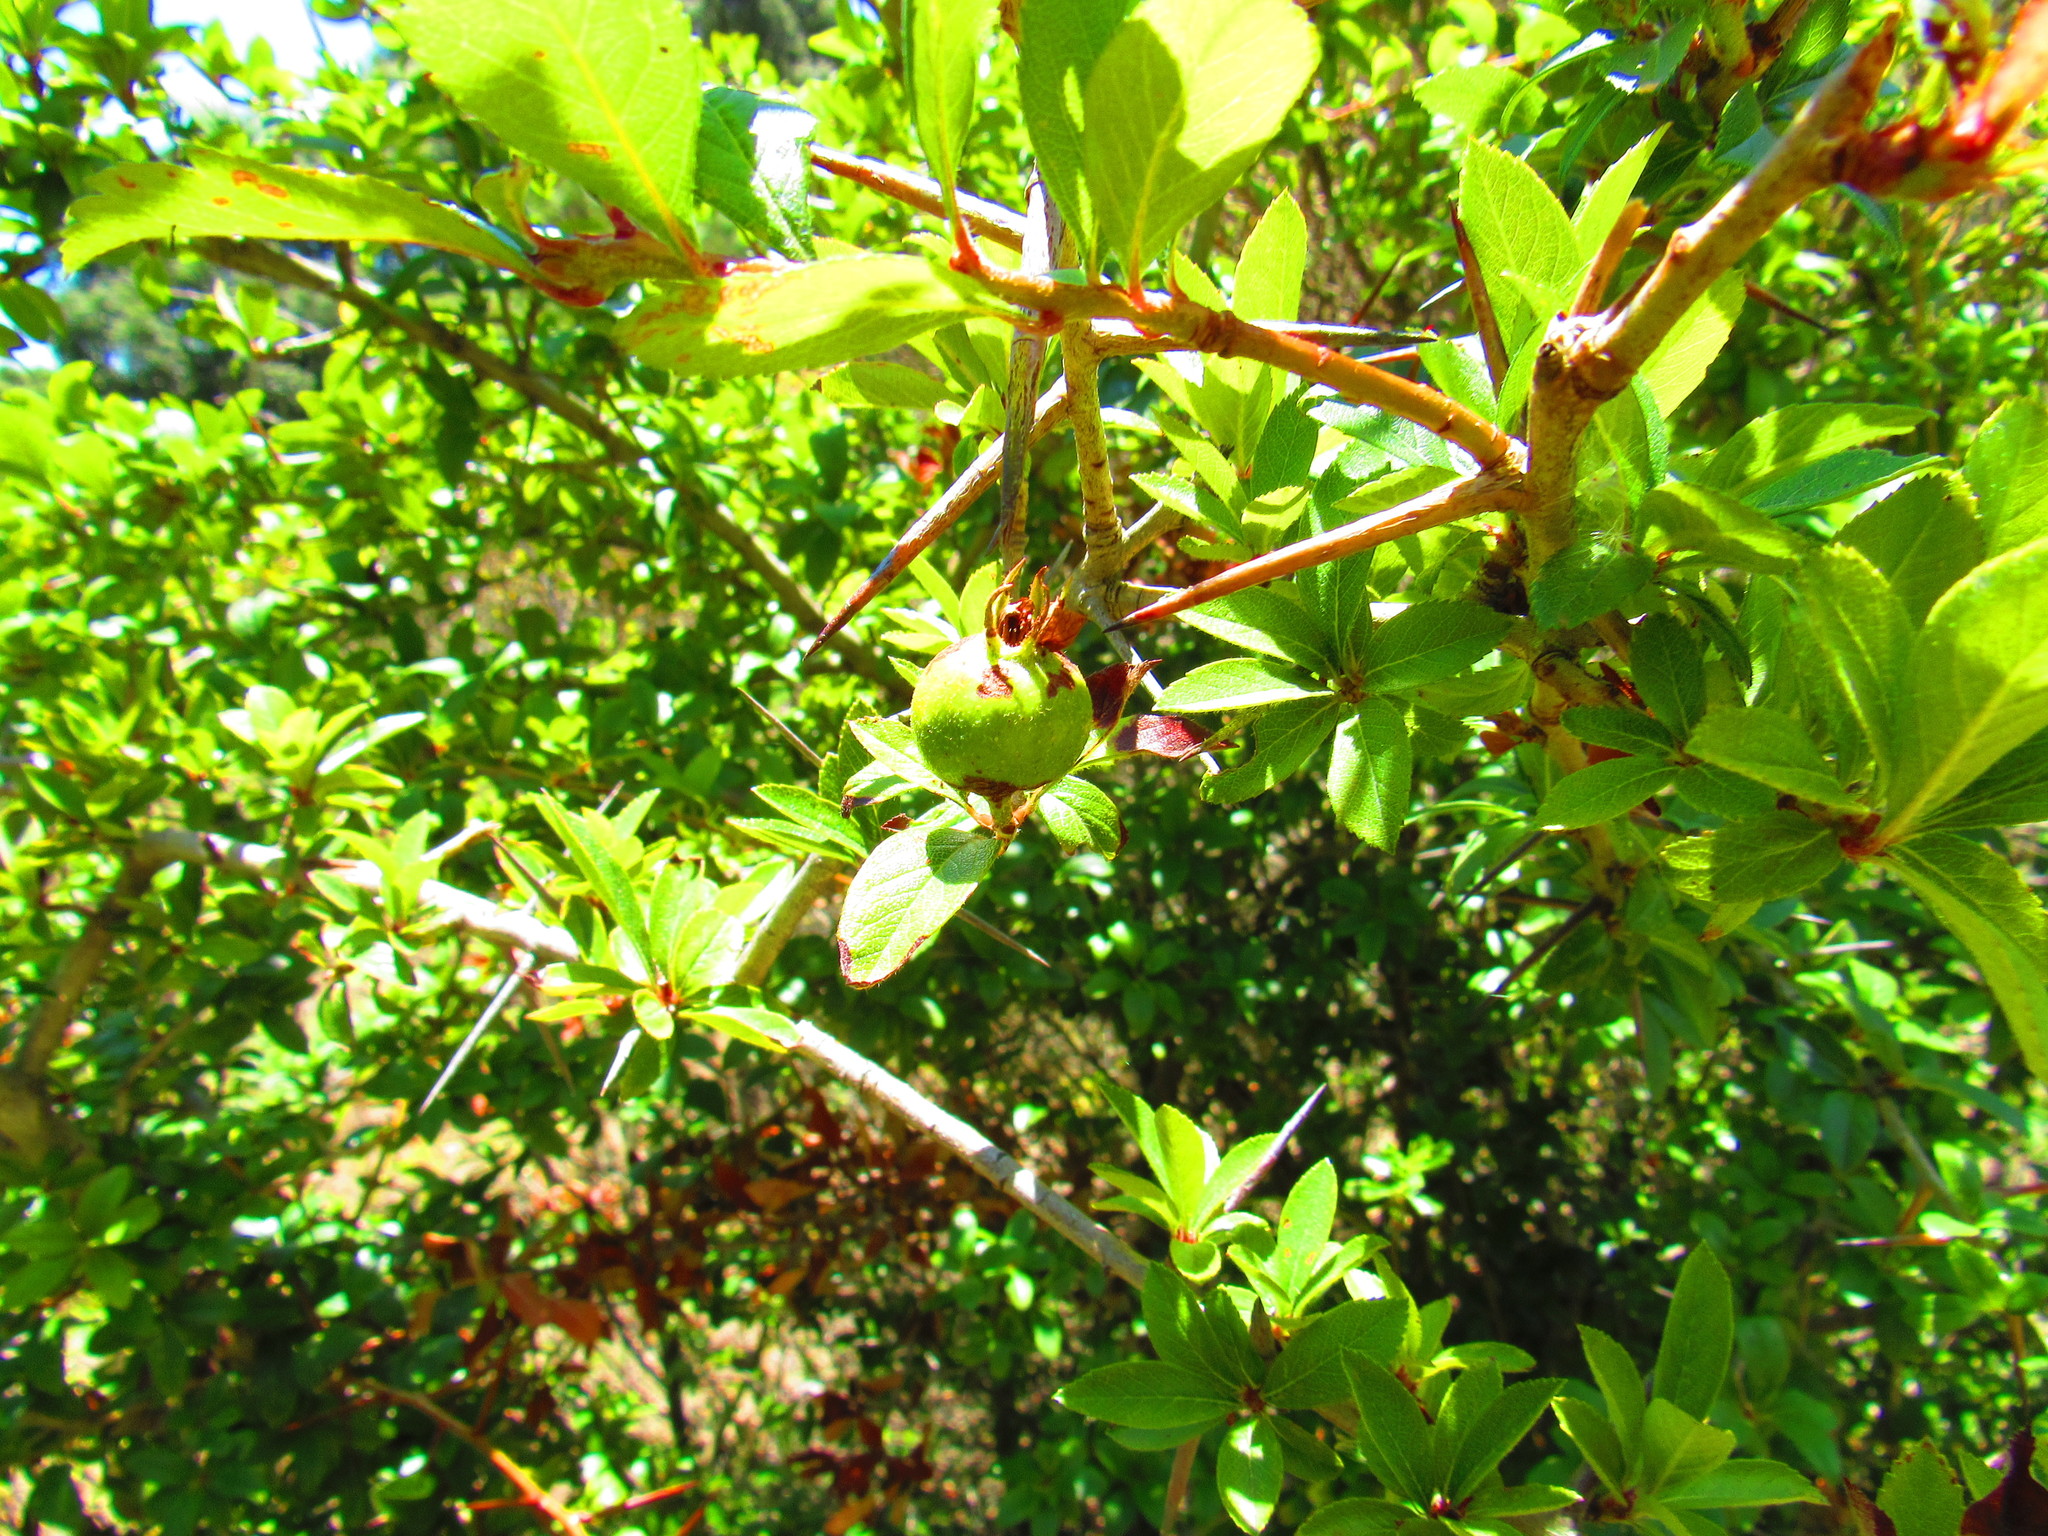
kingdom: Plantae
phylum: Tracheophyta
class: Magnoliopsida
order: Rosales
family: Rosaceae
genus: Crataegus
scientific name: Crataegus mexicana
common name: Mexican hawthorn
